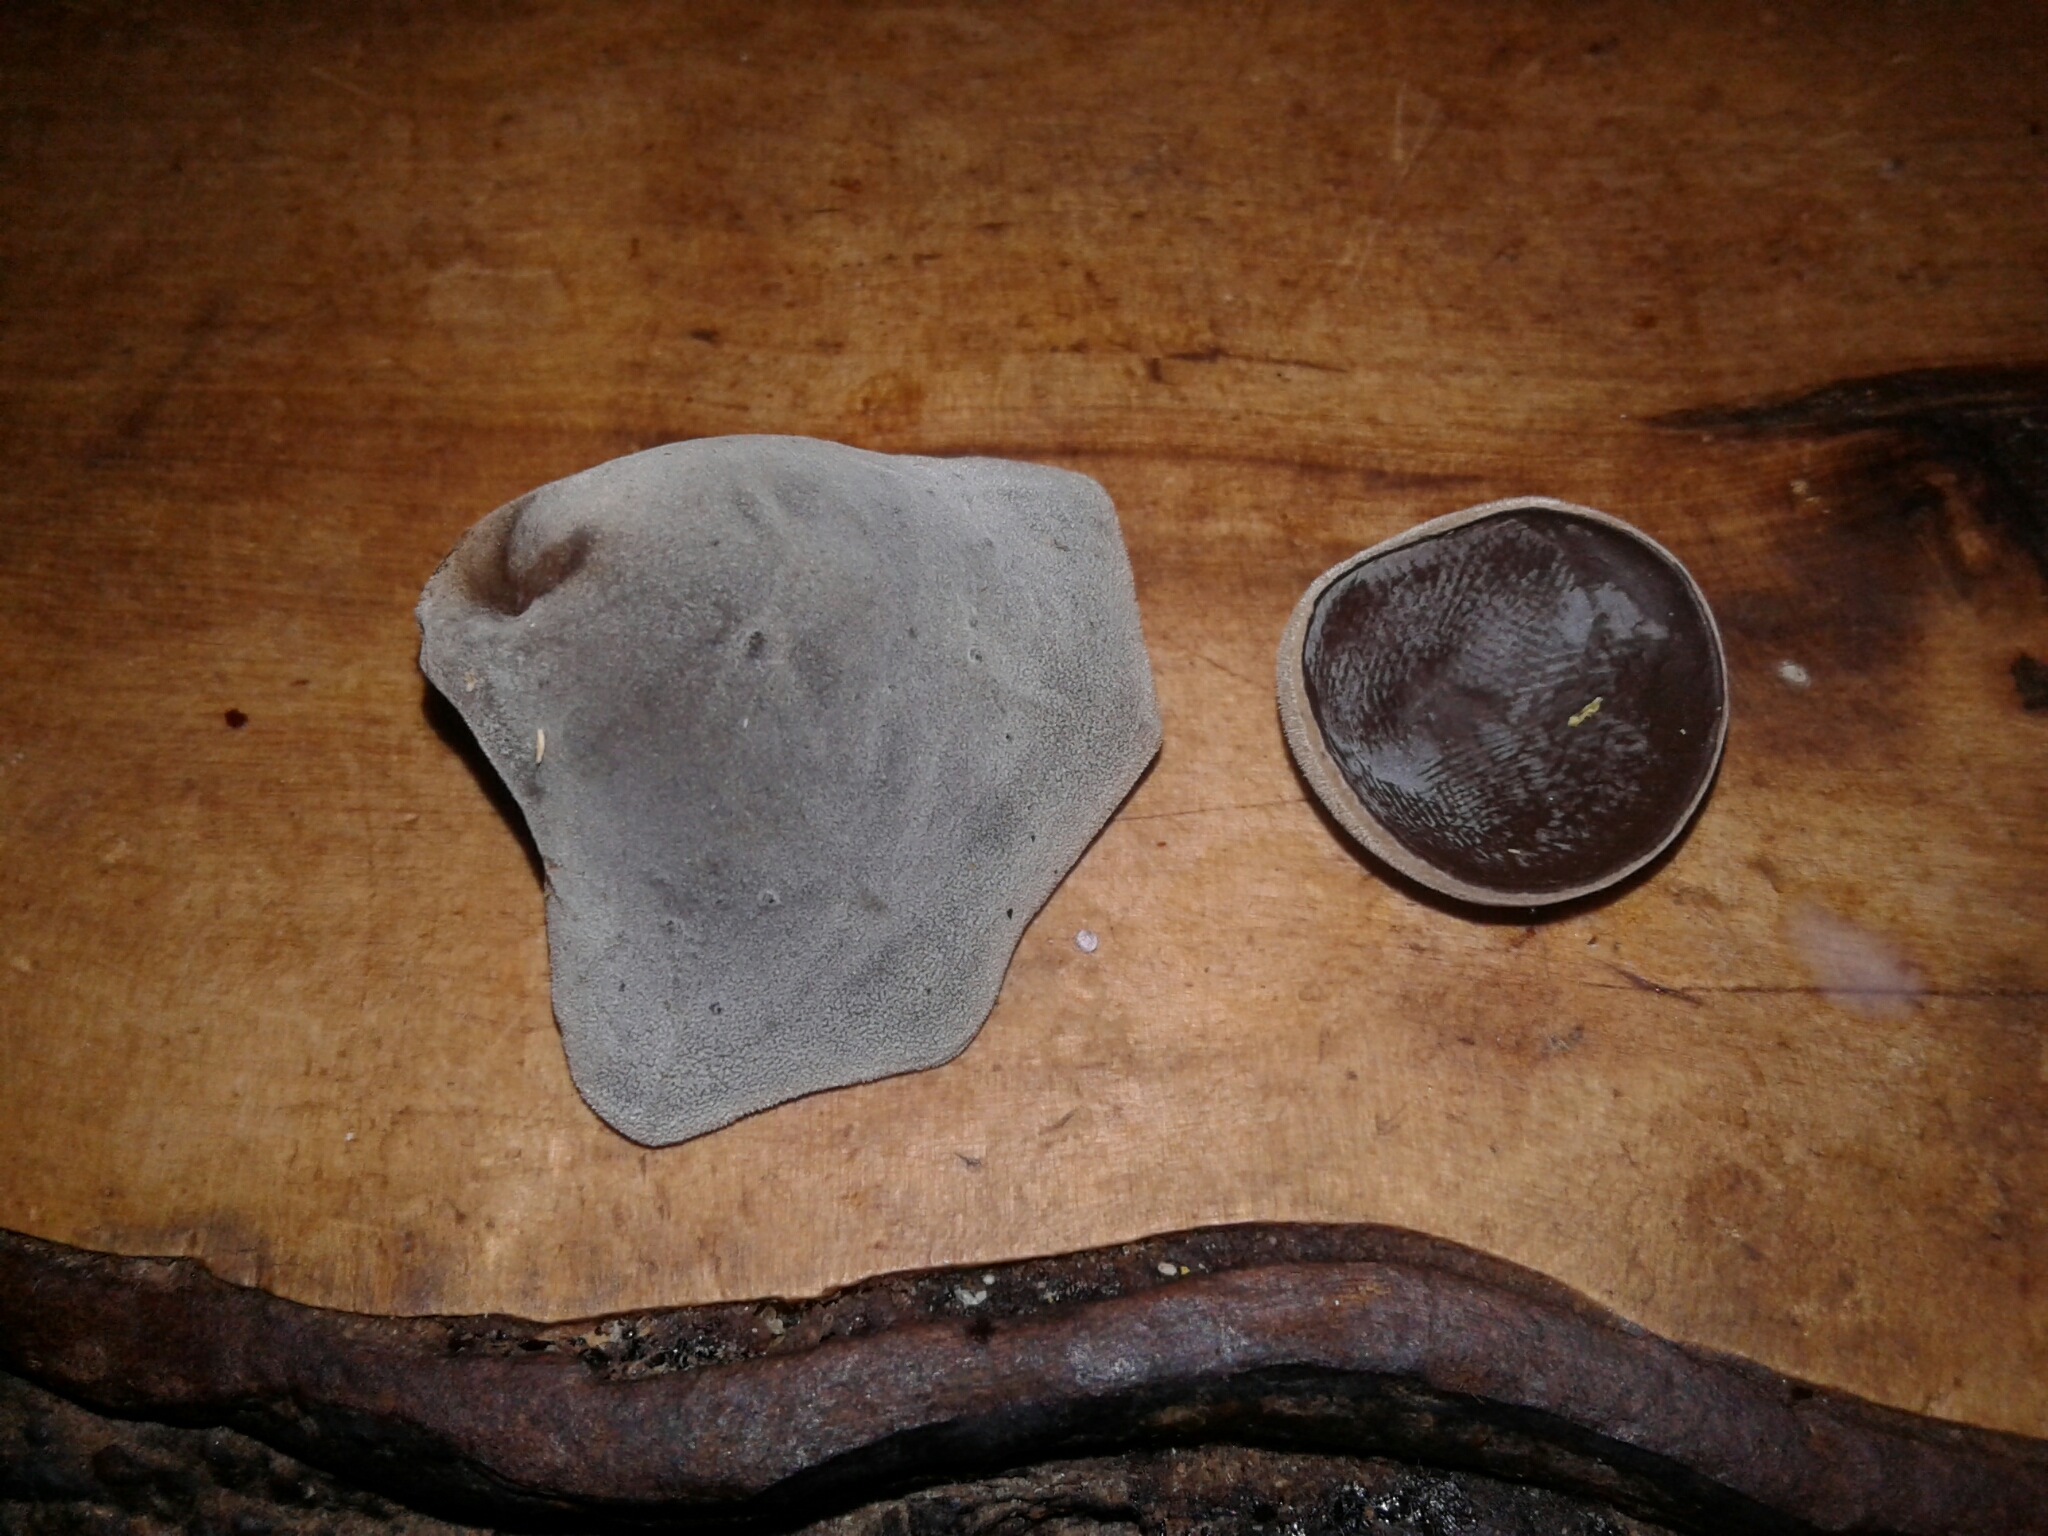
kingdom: Fungi
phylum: Basidiomycota
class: Agaricomycetes
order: Auriculariales
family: Auriculariaceae
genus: Auricularia
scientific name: Auricularia cornea
